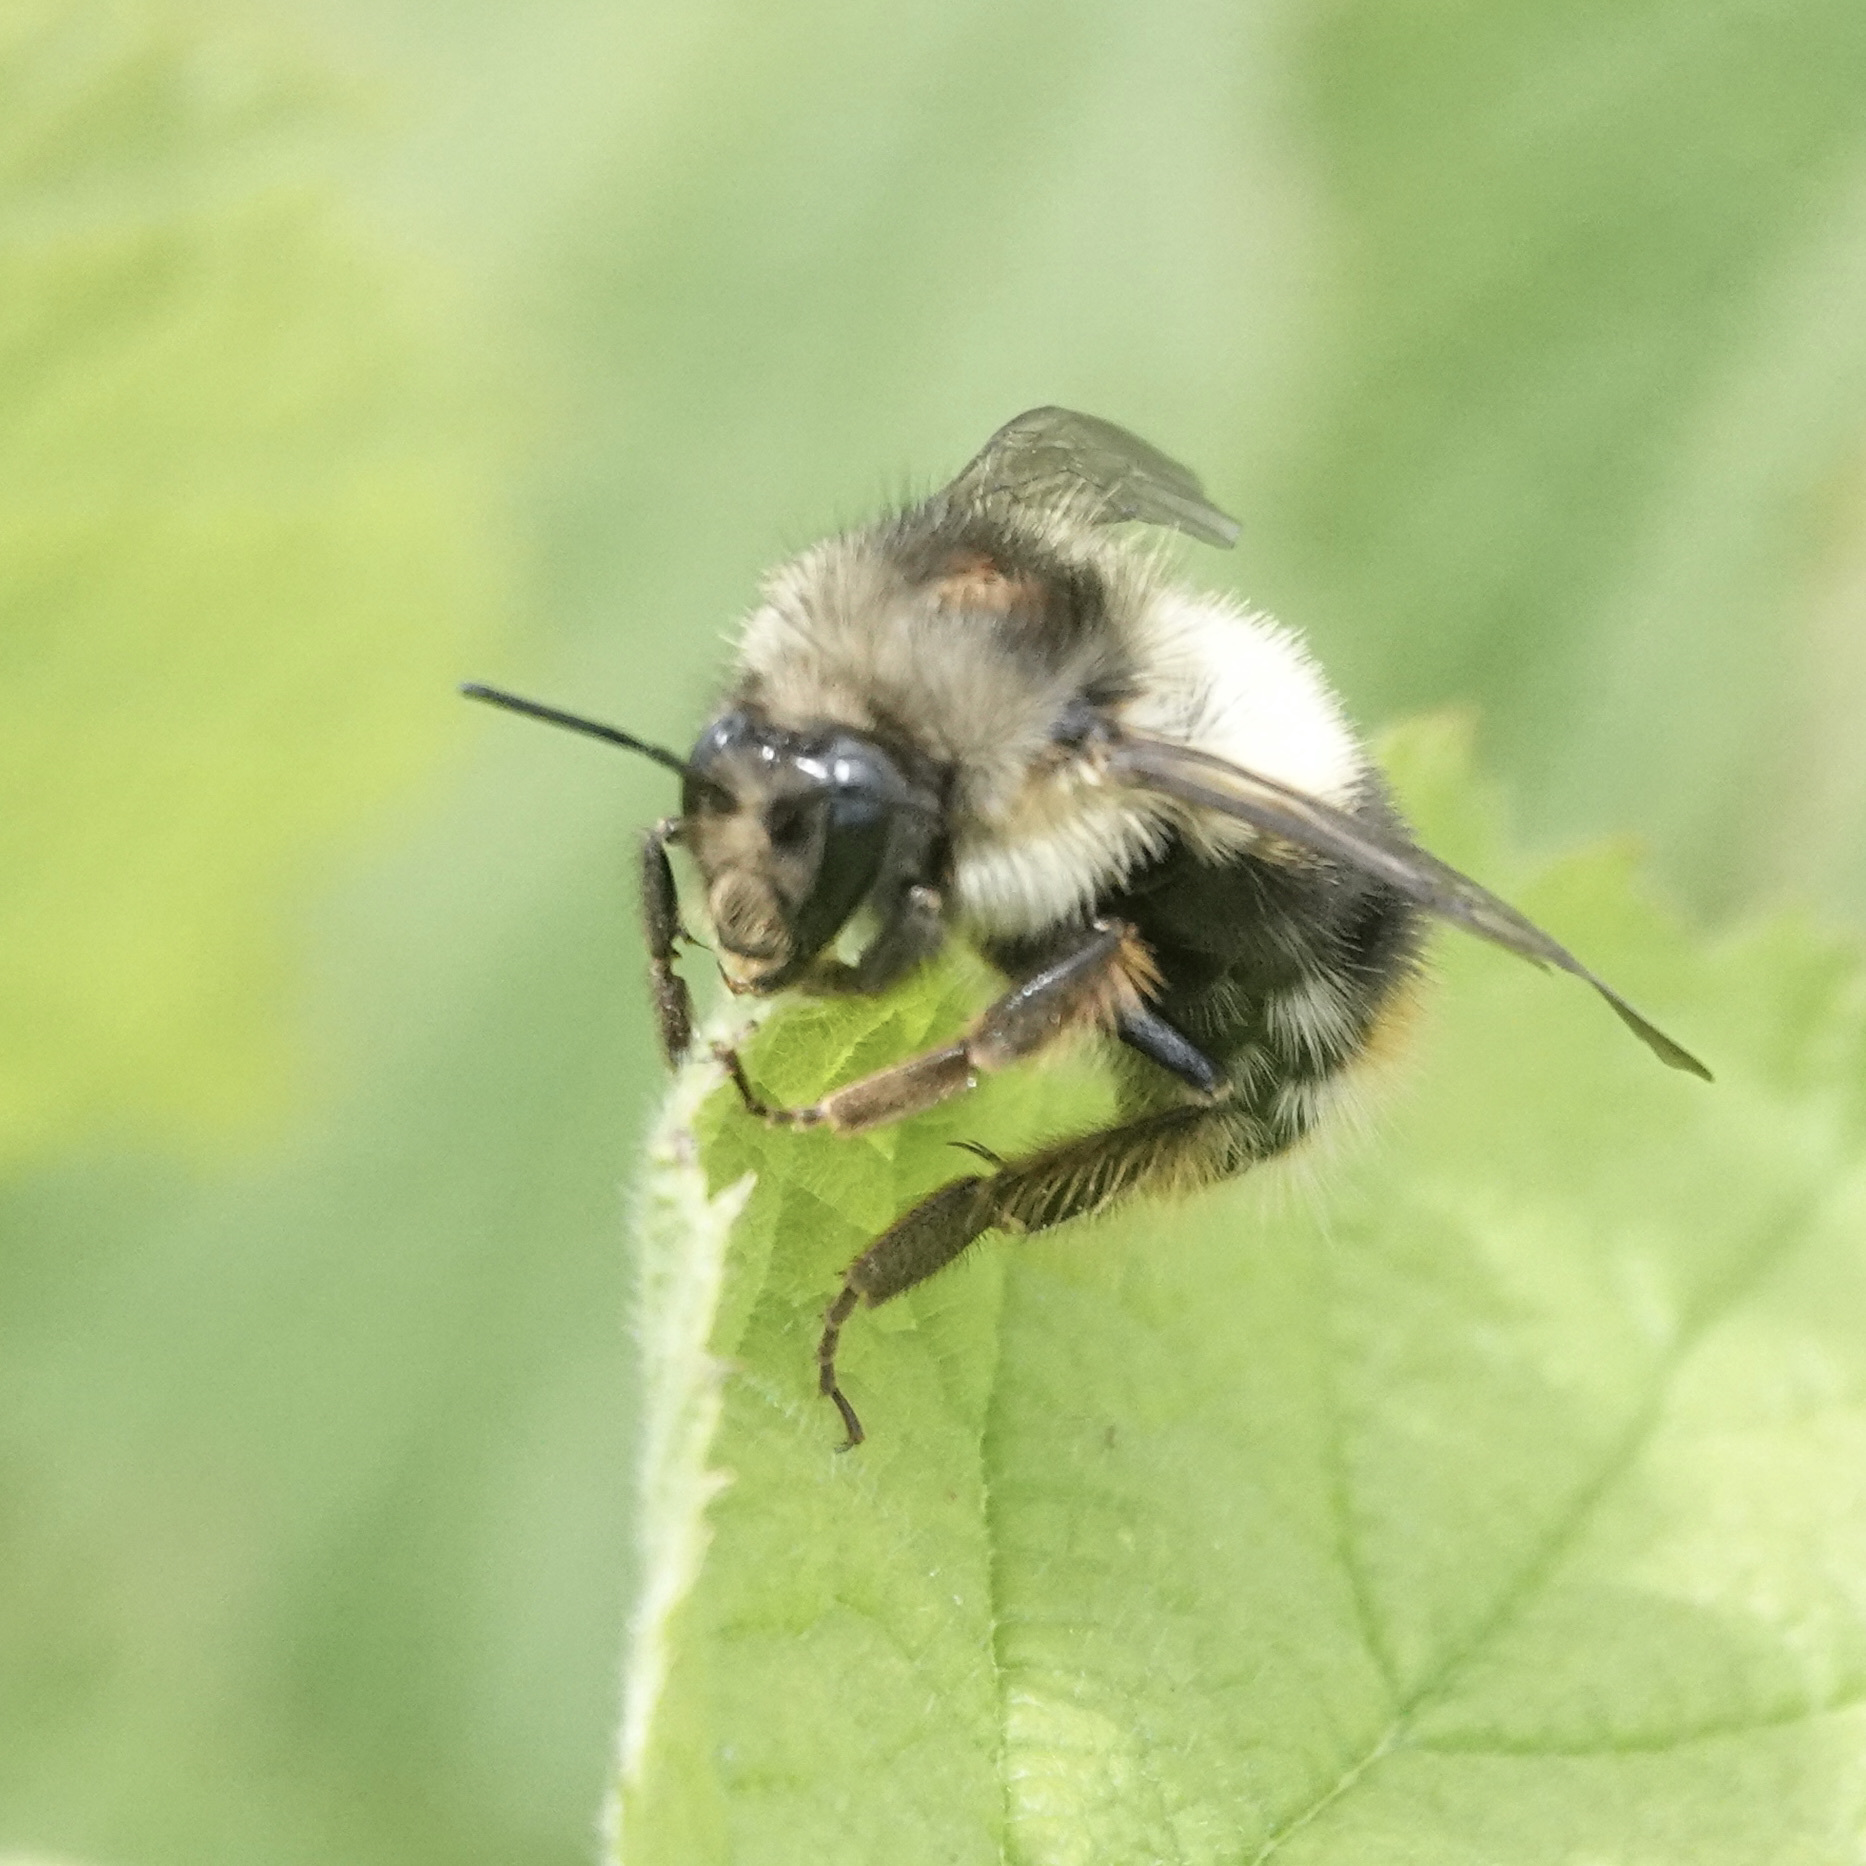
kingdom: Animalia
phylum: Arthropoda
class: Insecta
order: Hymenoptera
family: Apidae
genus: Bombus
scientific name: Bombus mixtus
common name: Fuzzy-horned bumble bee
